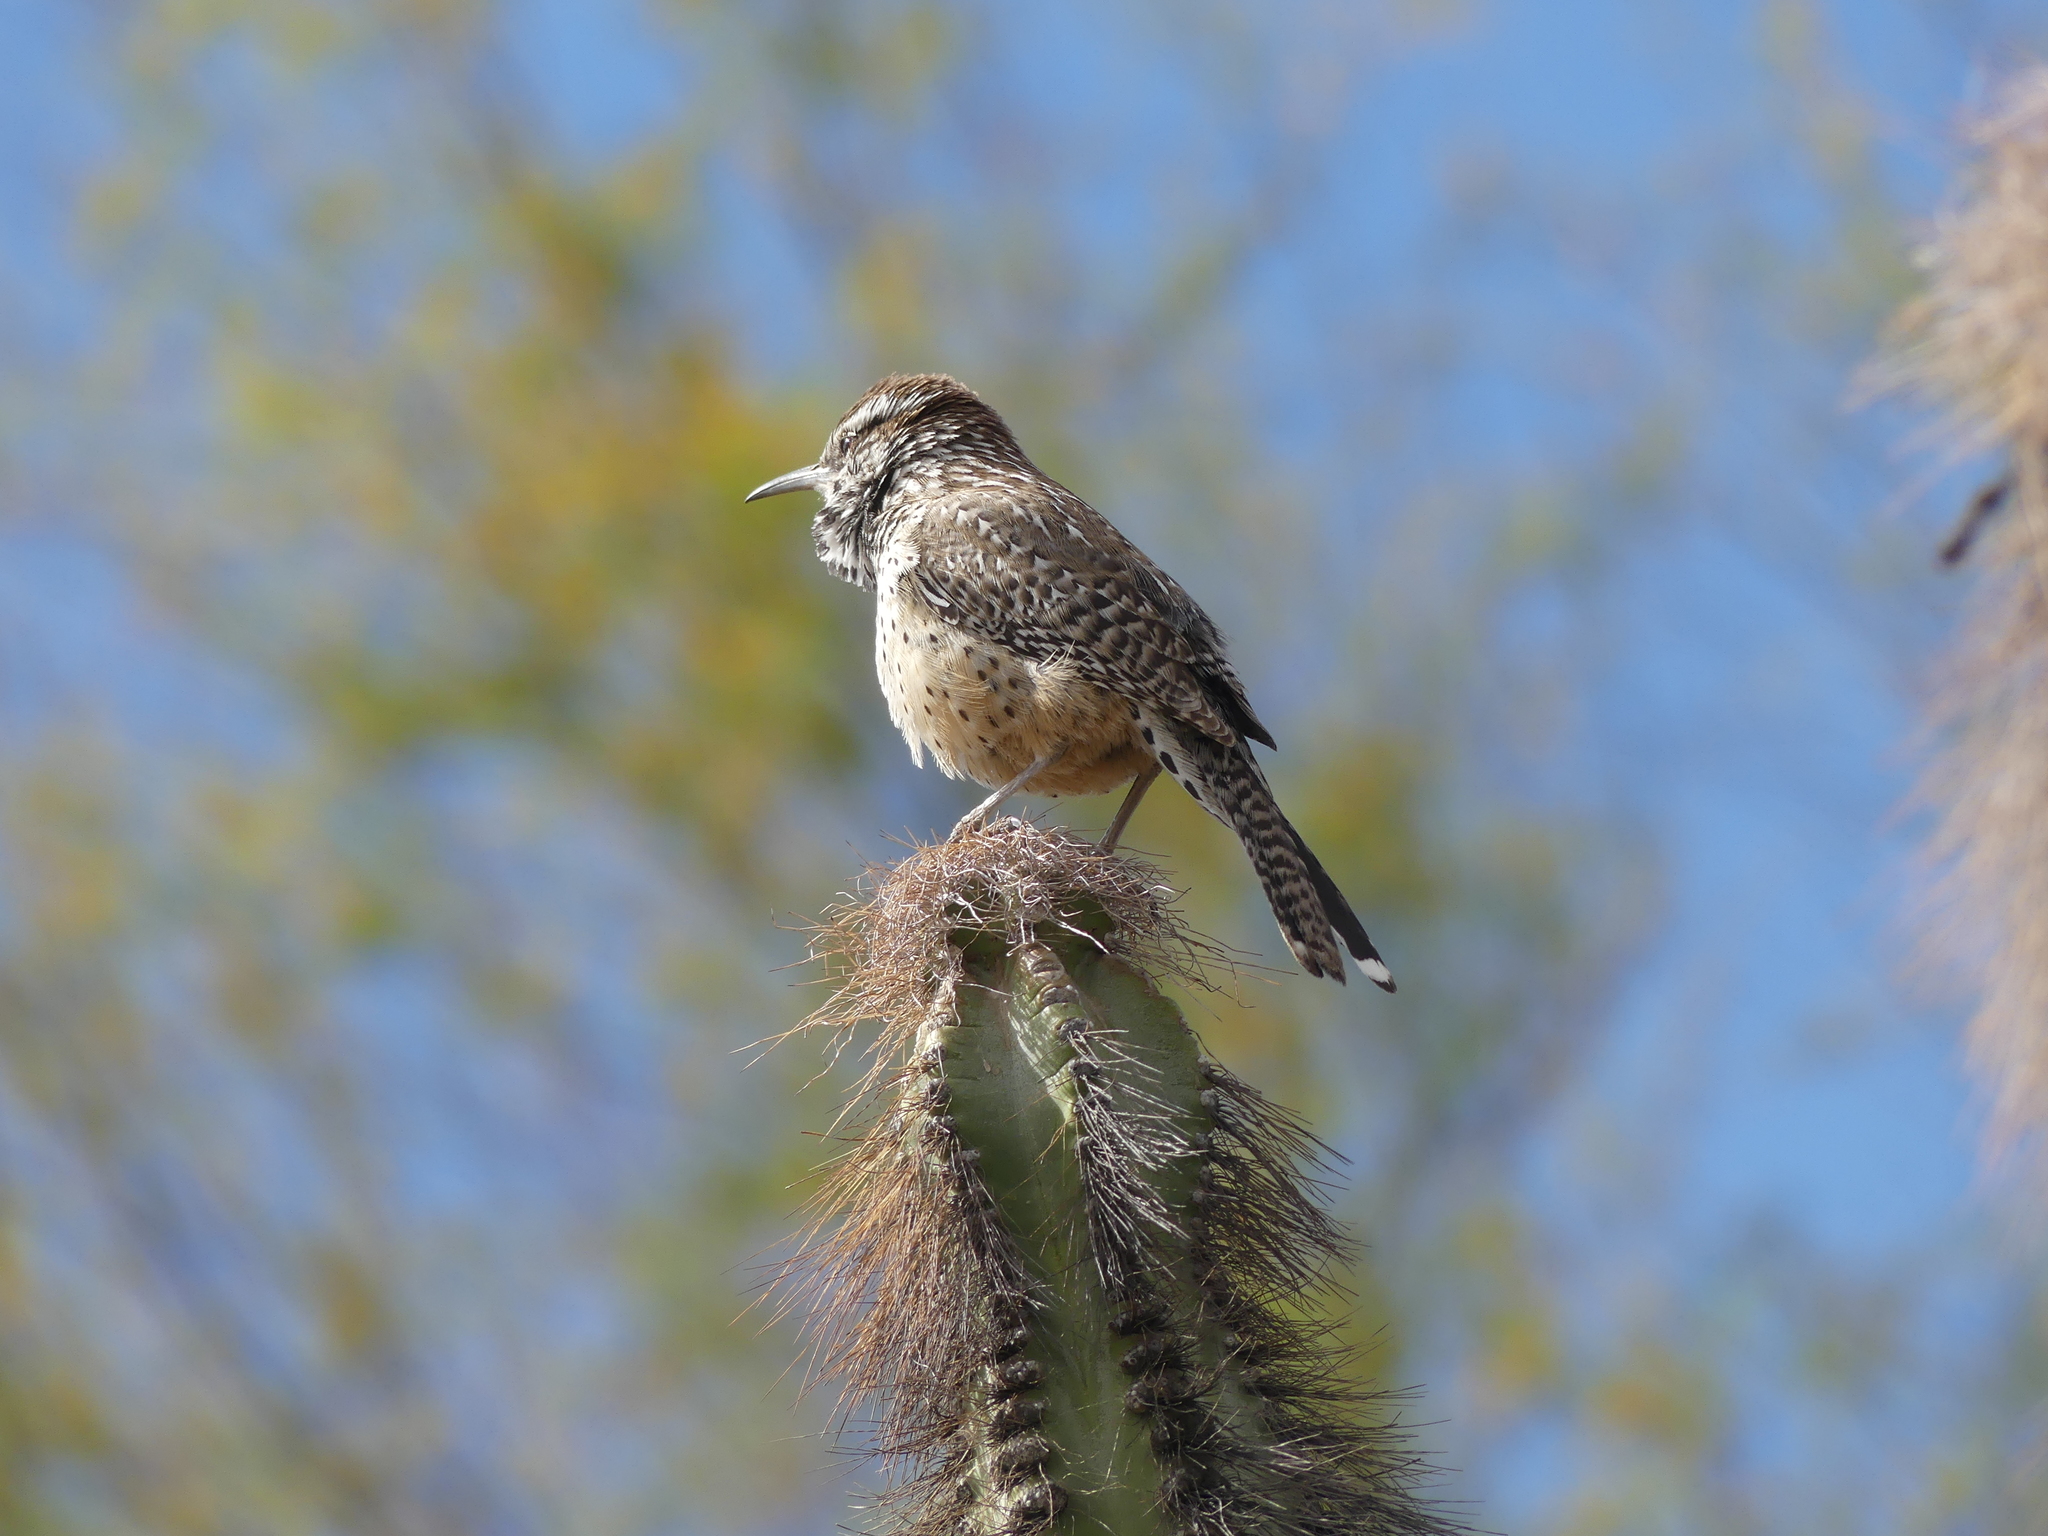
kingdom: Animalia
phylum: Chordata
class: Aves
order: Passeriformes
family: Troglodytidae
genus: Campylorhynchus
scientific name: Campylorhynchus brunneicapillus
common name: Cactus wren
